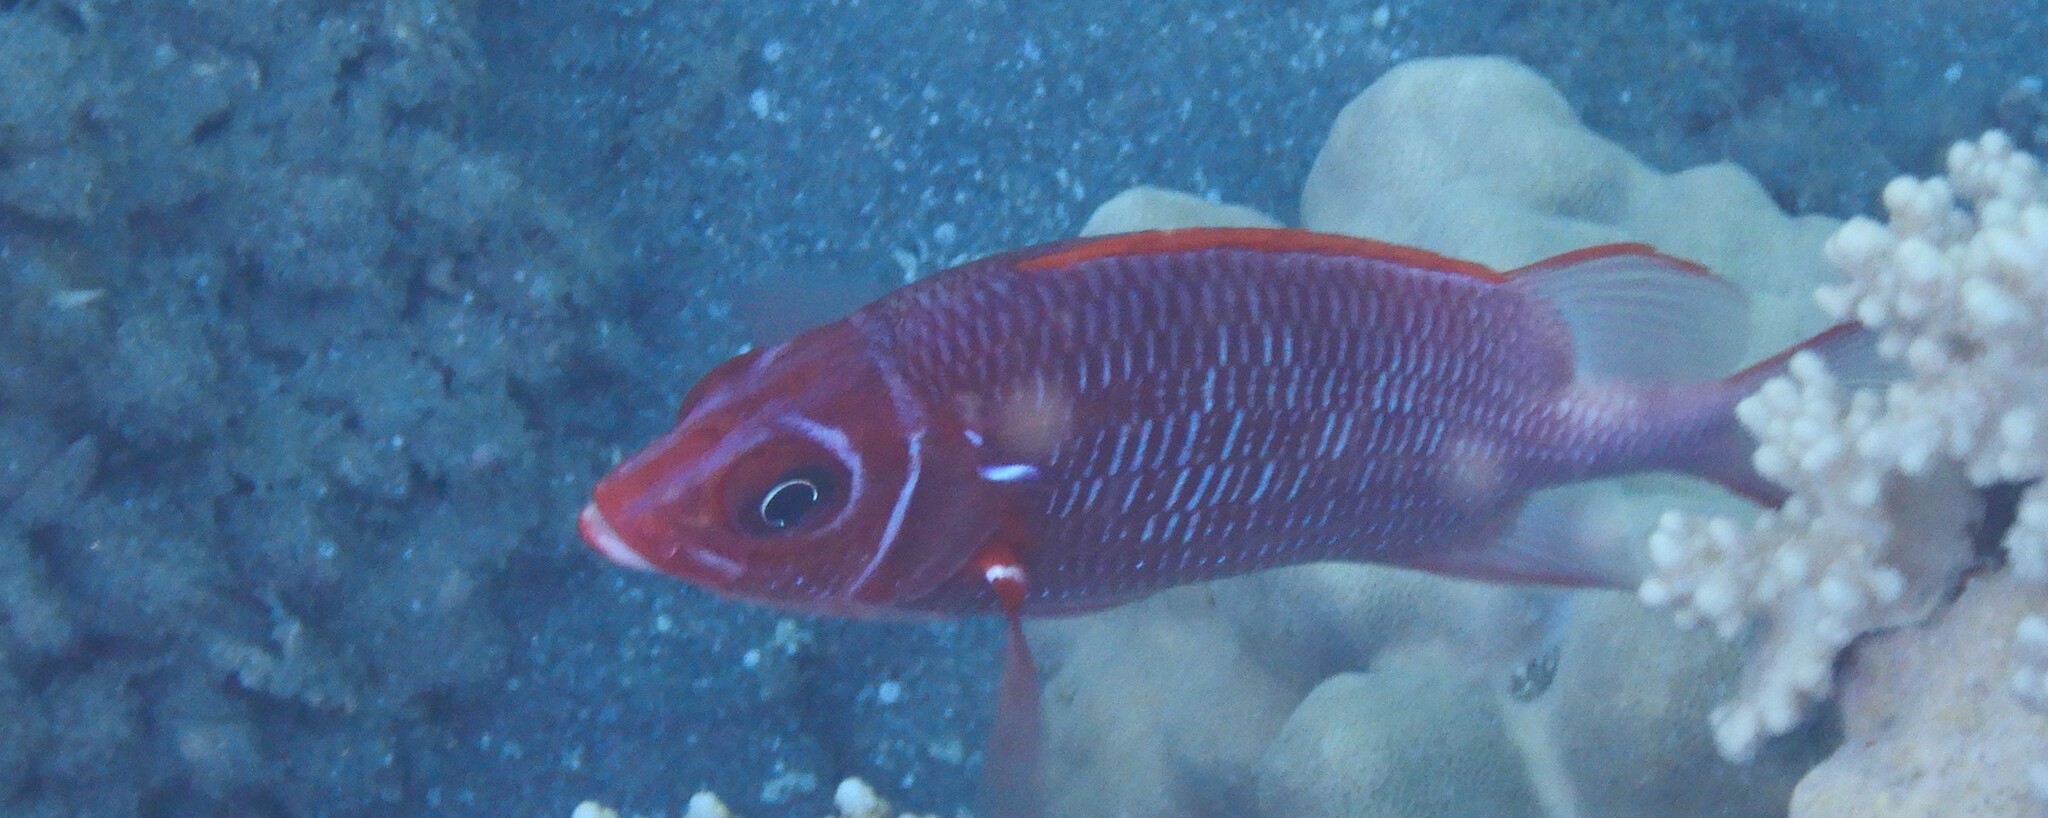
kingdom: Animalia
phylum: Chordata
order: Beryciformes
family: Holocentridae
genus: Sargocentron
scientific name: Sargocentron caudimaculatum
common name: Fanfin soldier
